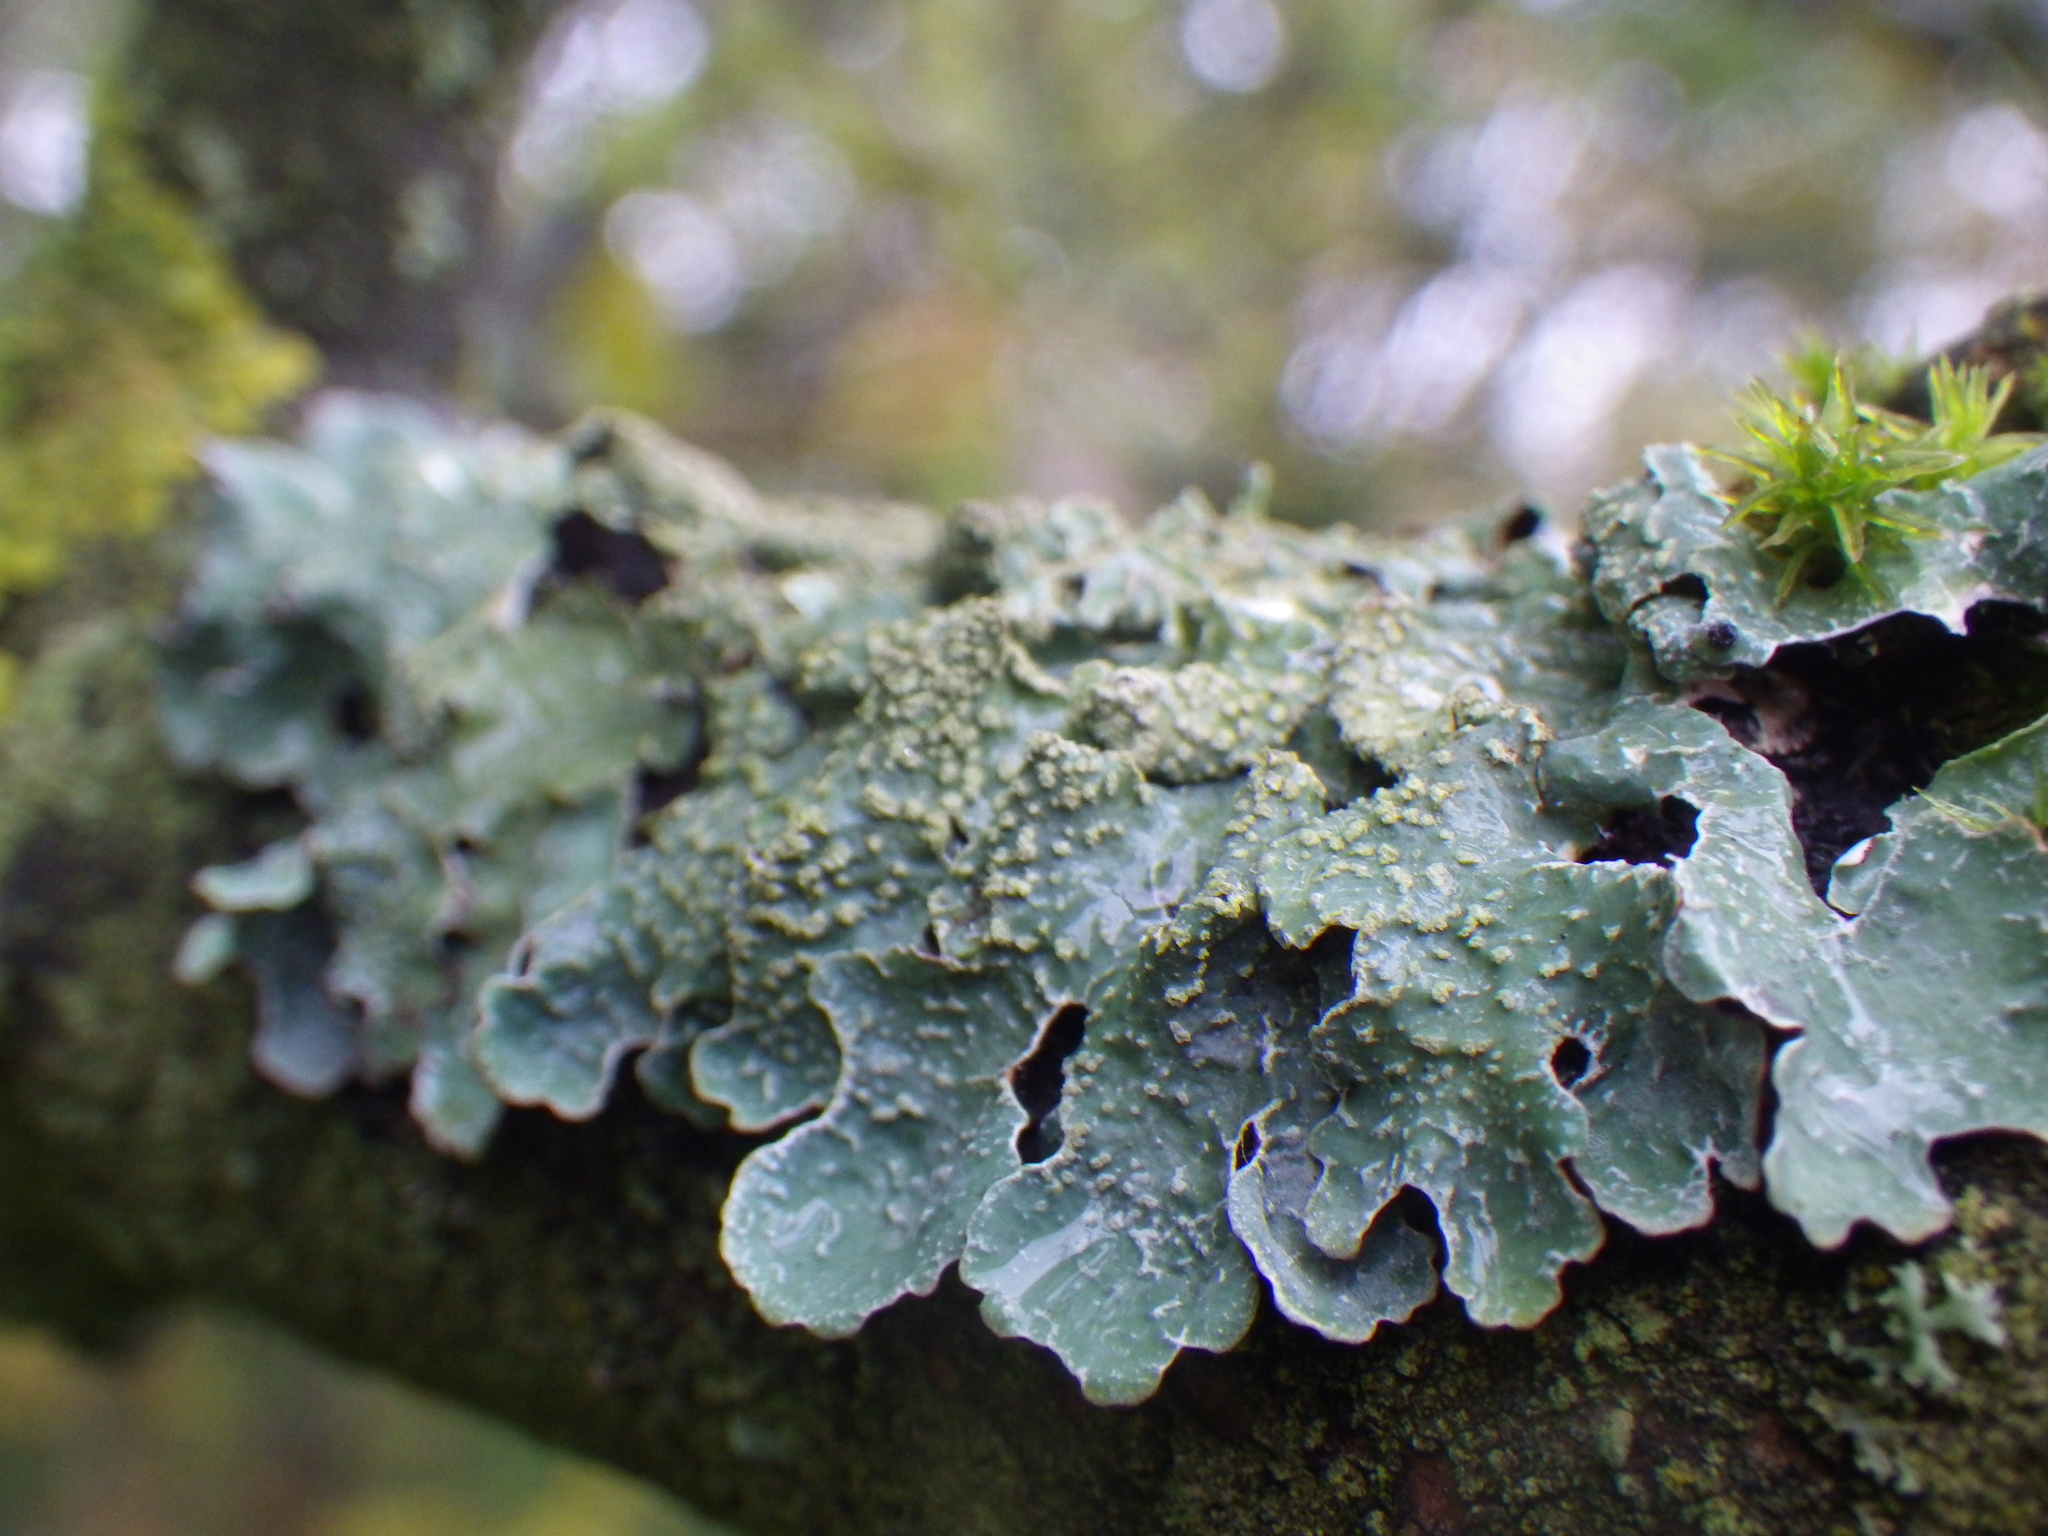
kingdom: Fungi
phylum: Ascomycota
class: Lecanoromycetes
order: Lecanorales
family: Parmeliaceae
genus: Parmelia
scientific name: Parmelia sulcata
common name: Netted shield lichen
